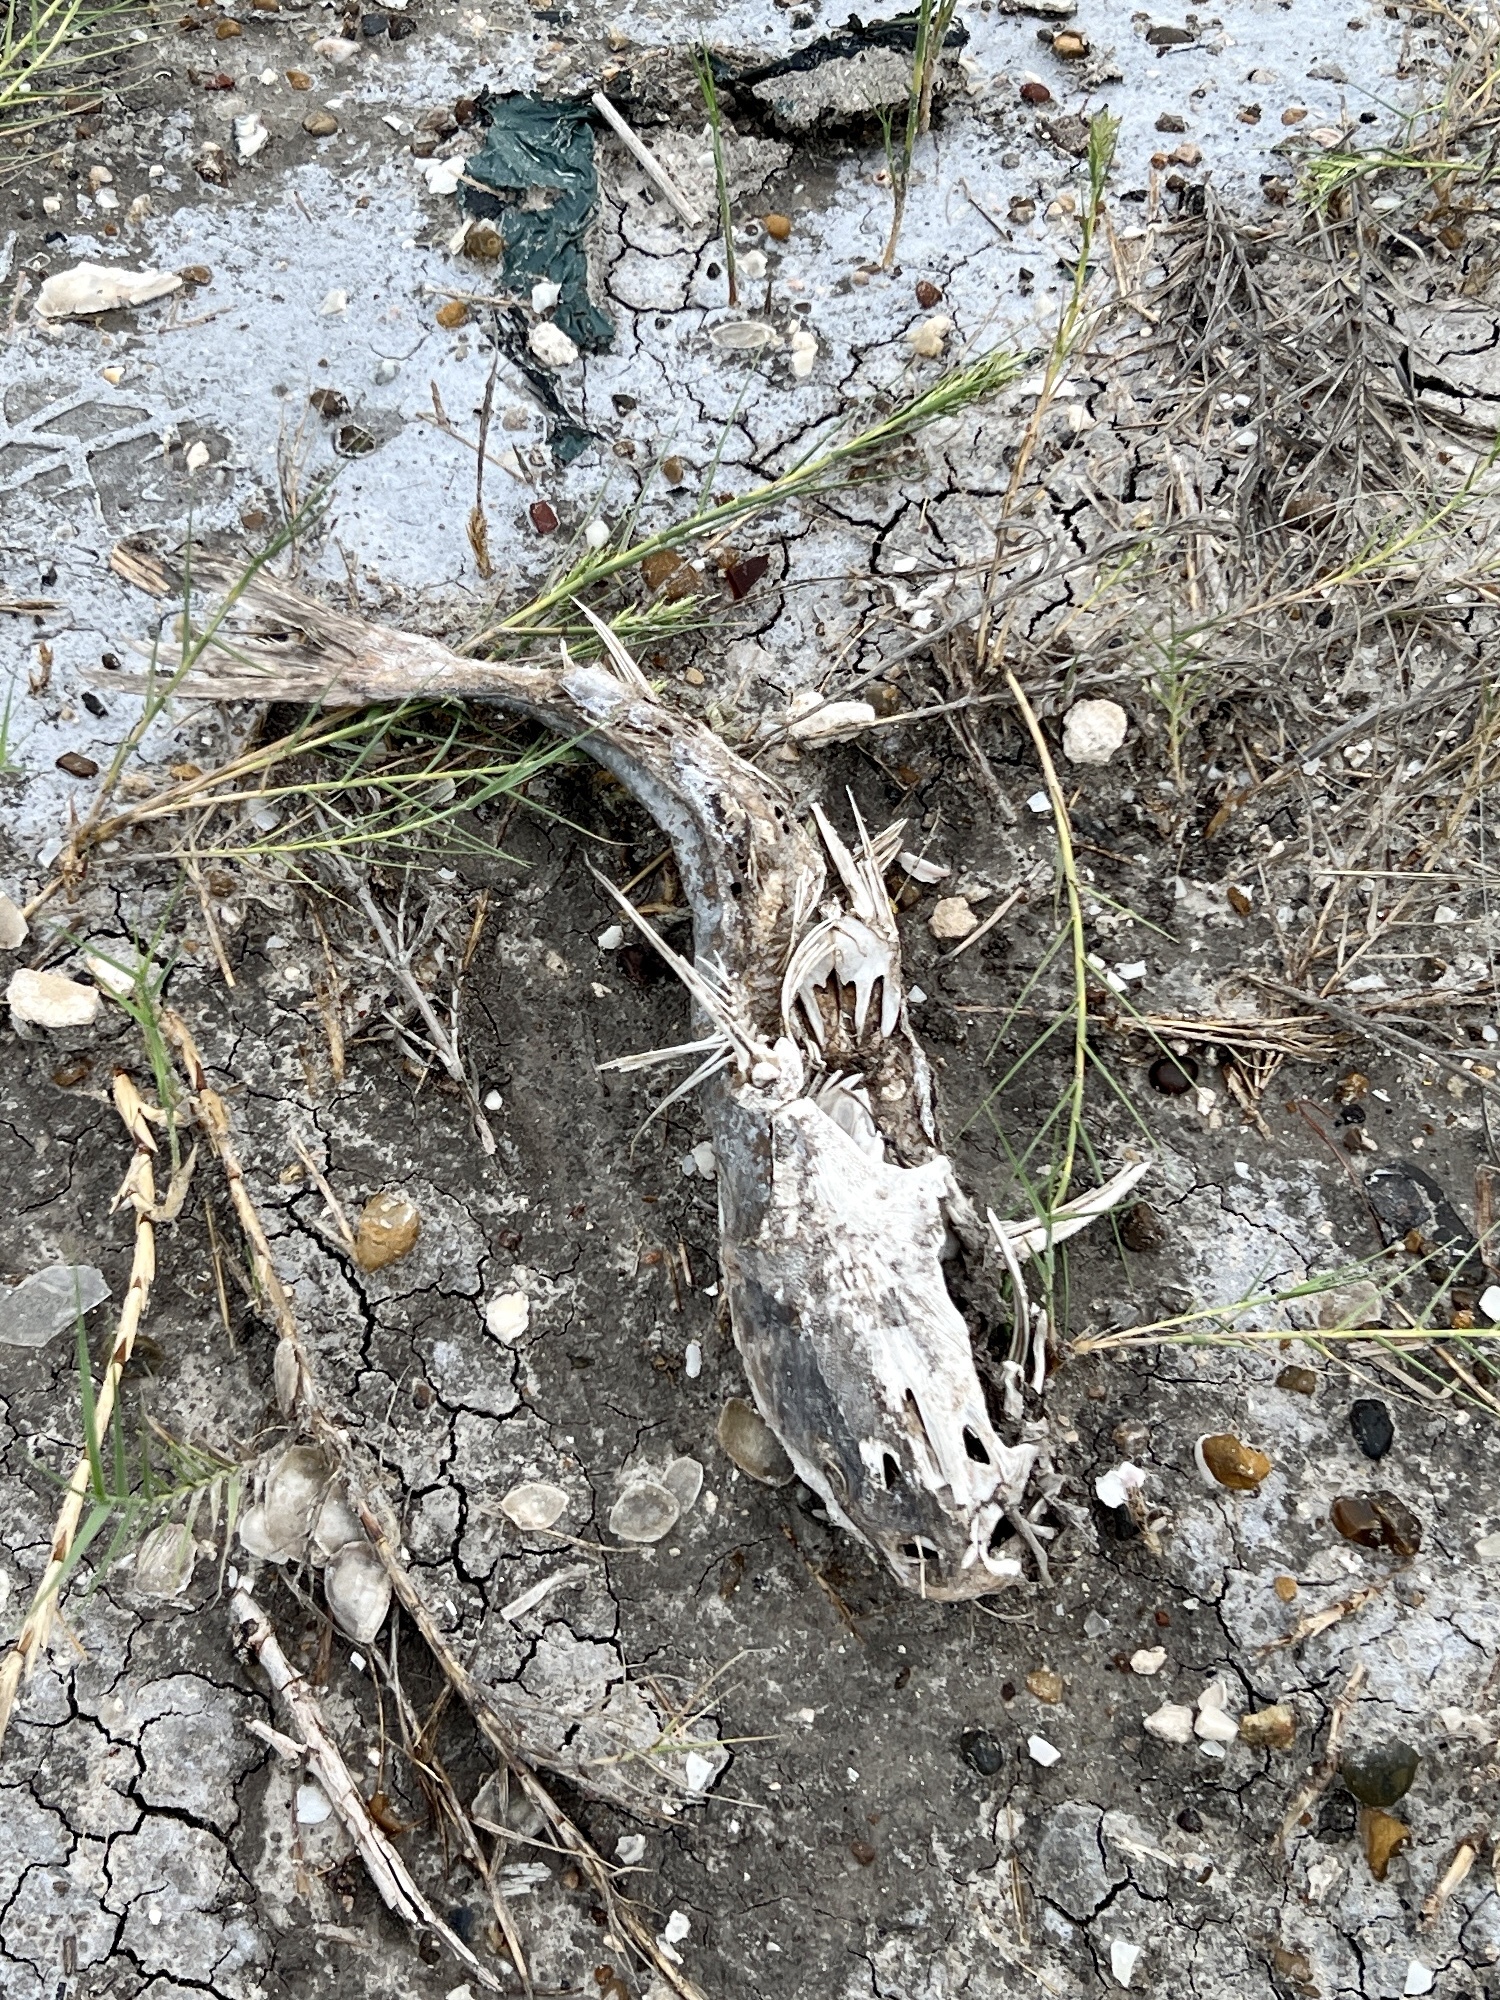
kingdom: Animalia
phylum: Chordata
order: Siluriformes
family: Ariidae
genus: Ariopsis
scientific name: Ariopsis felis
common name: Hardhead catfish
